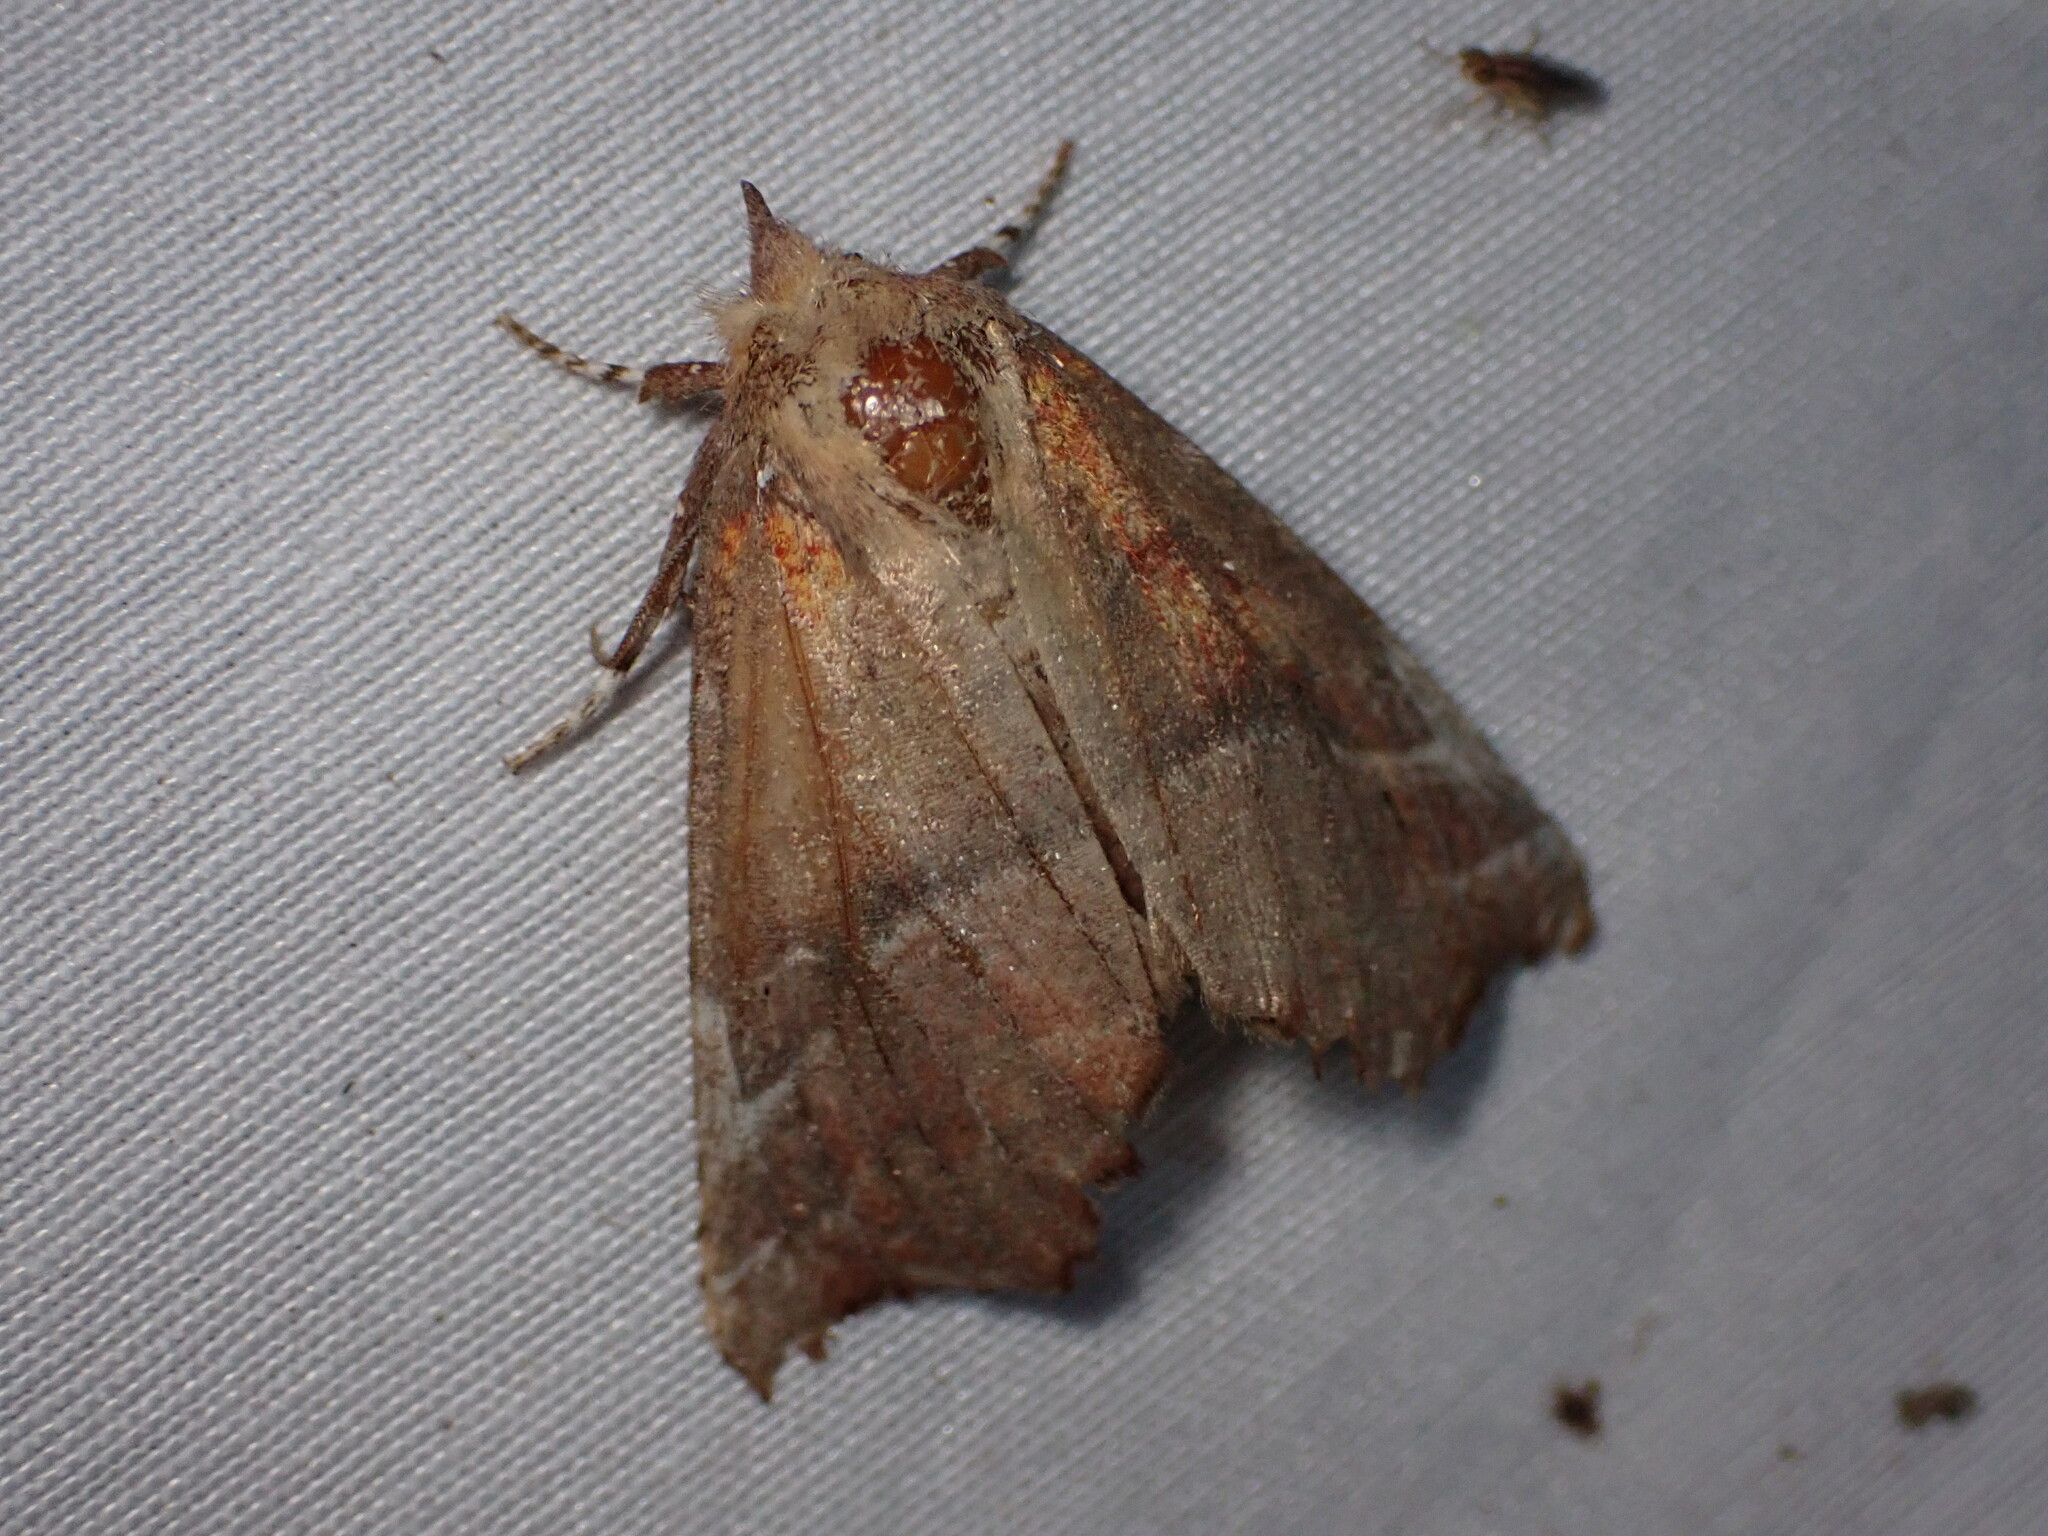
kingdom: Animalia
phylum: Arthropoda
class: Insecta
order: Lepidoptera
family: Erebidae
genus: Scoliopteryx
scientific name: Scoliopteryx libatrix
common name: Herald
